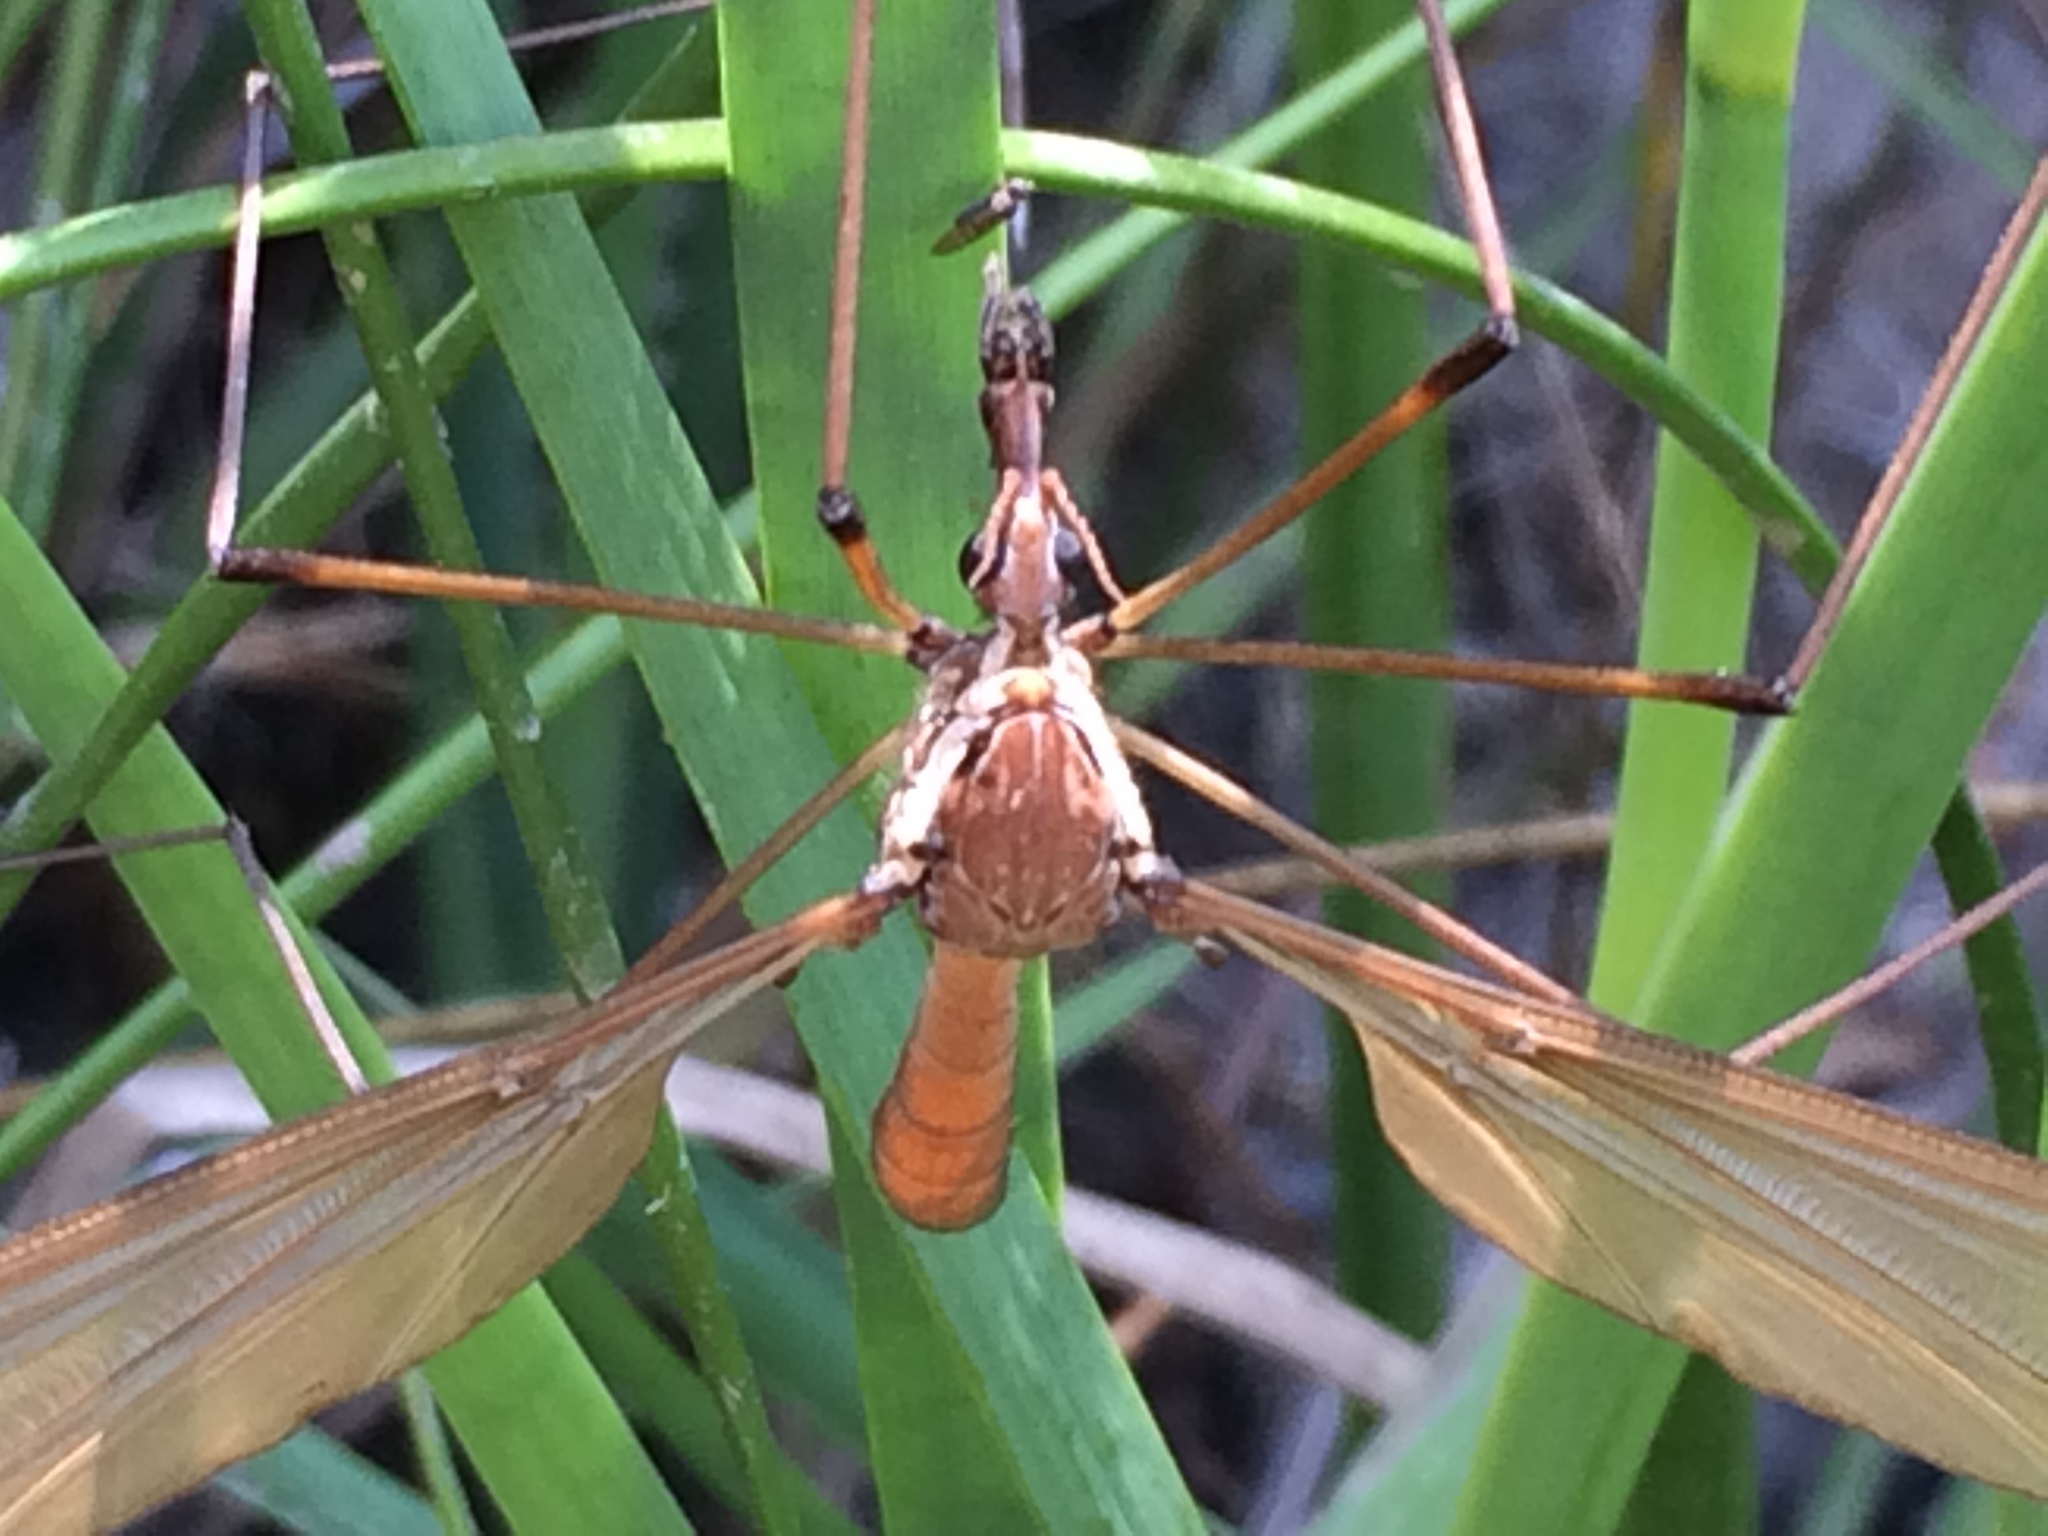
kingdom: Animalia
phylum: Arthropoda
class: Insecta
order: Diptera
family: Tipulidae
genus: Holorusia
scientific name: Holorusia hespera
